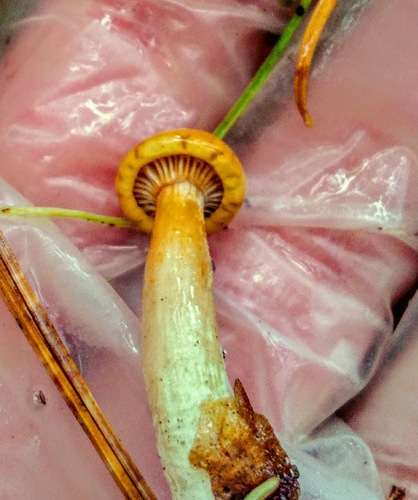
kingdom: Fungi
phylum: Basidiomycota
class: Agaricomycetes
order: Agaricales
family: Hygrophoraceae
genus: Hygrophorus
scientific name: Hygrophorus
